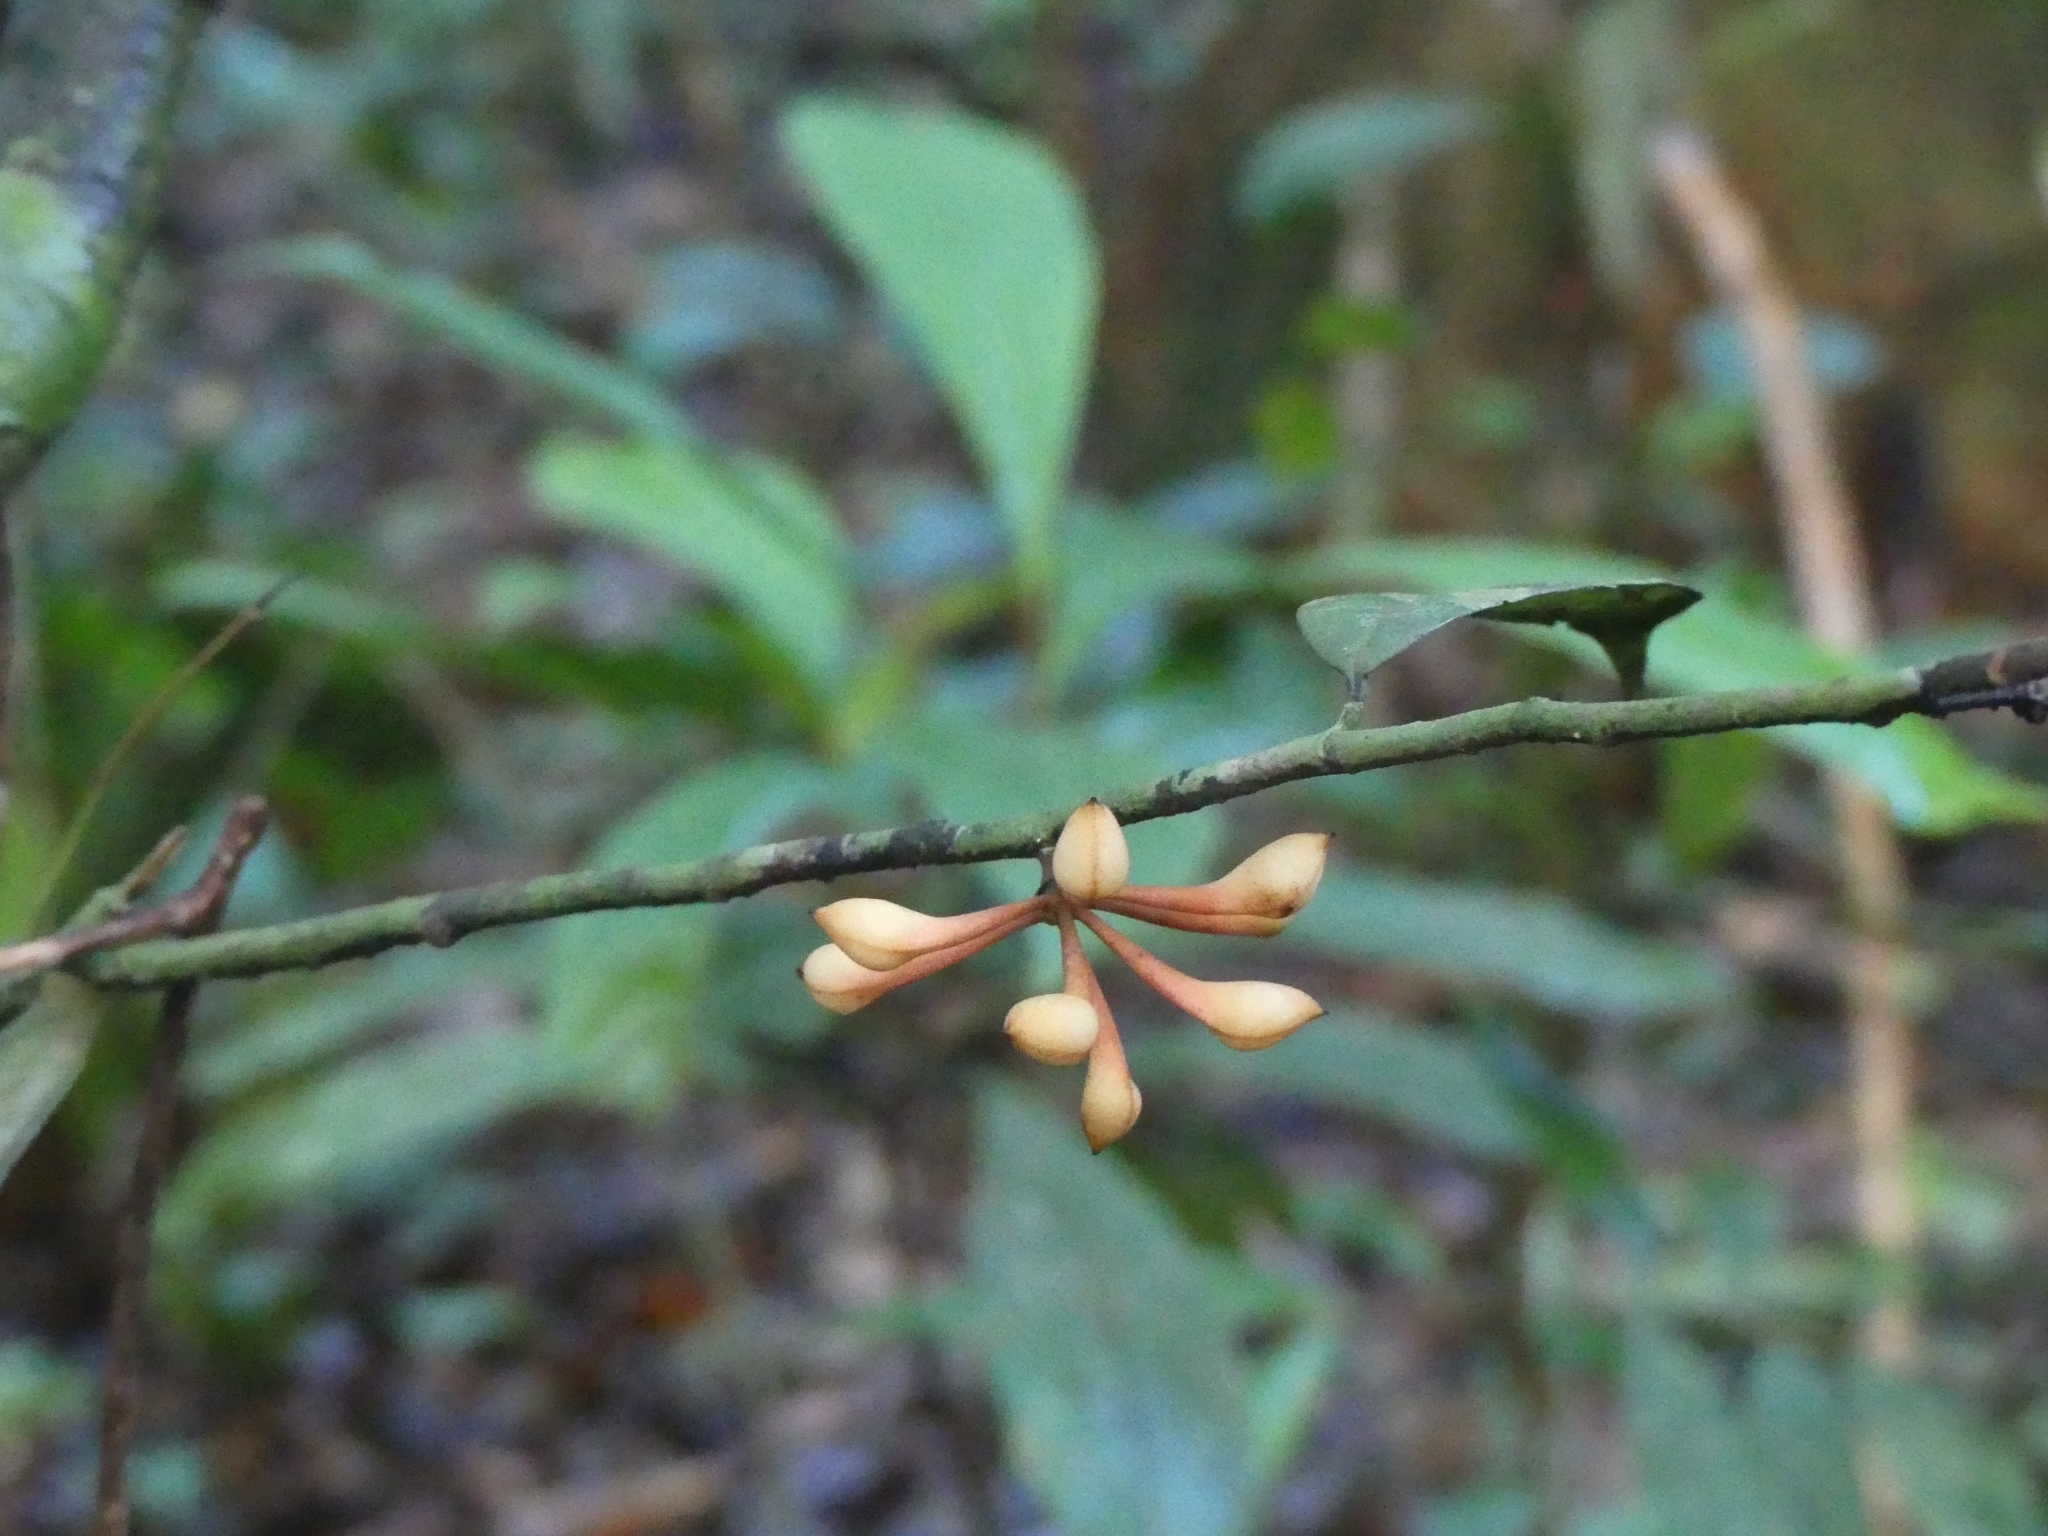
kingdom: Plantae
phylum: Tracheophyta
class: Magnoliopsida
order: Magnoliales
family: Annonaceae
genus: Anaxagorea
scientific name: Anaxagorea
